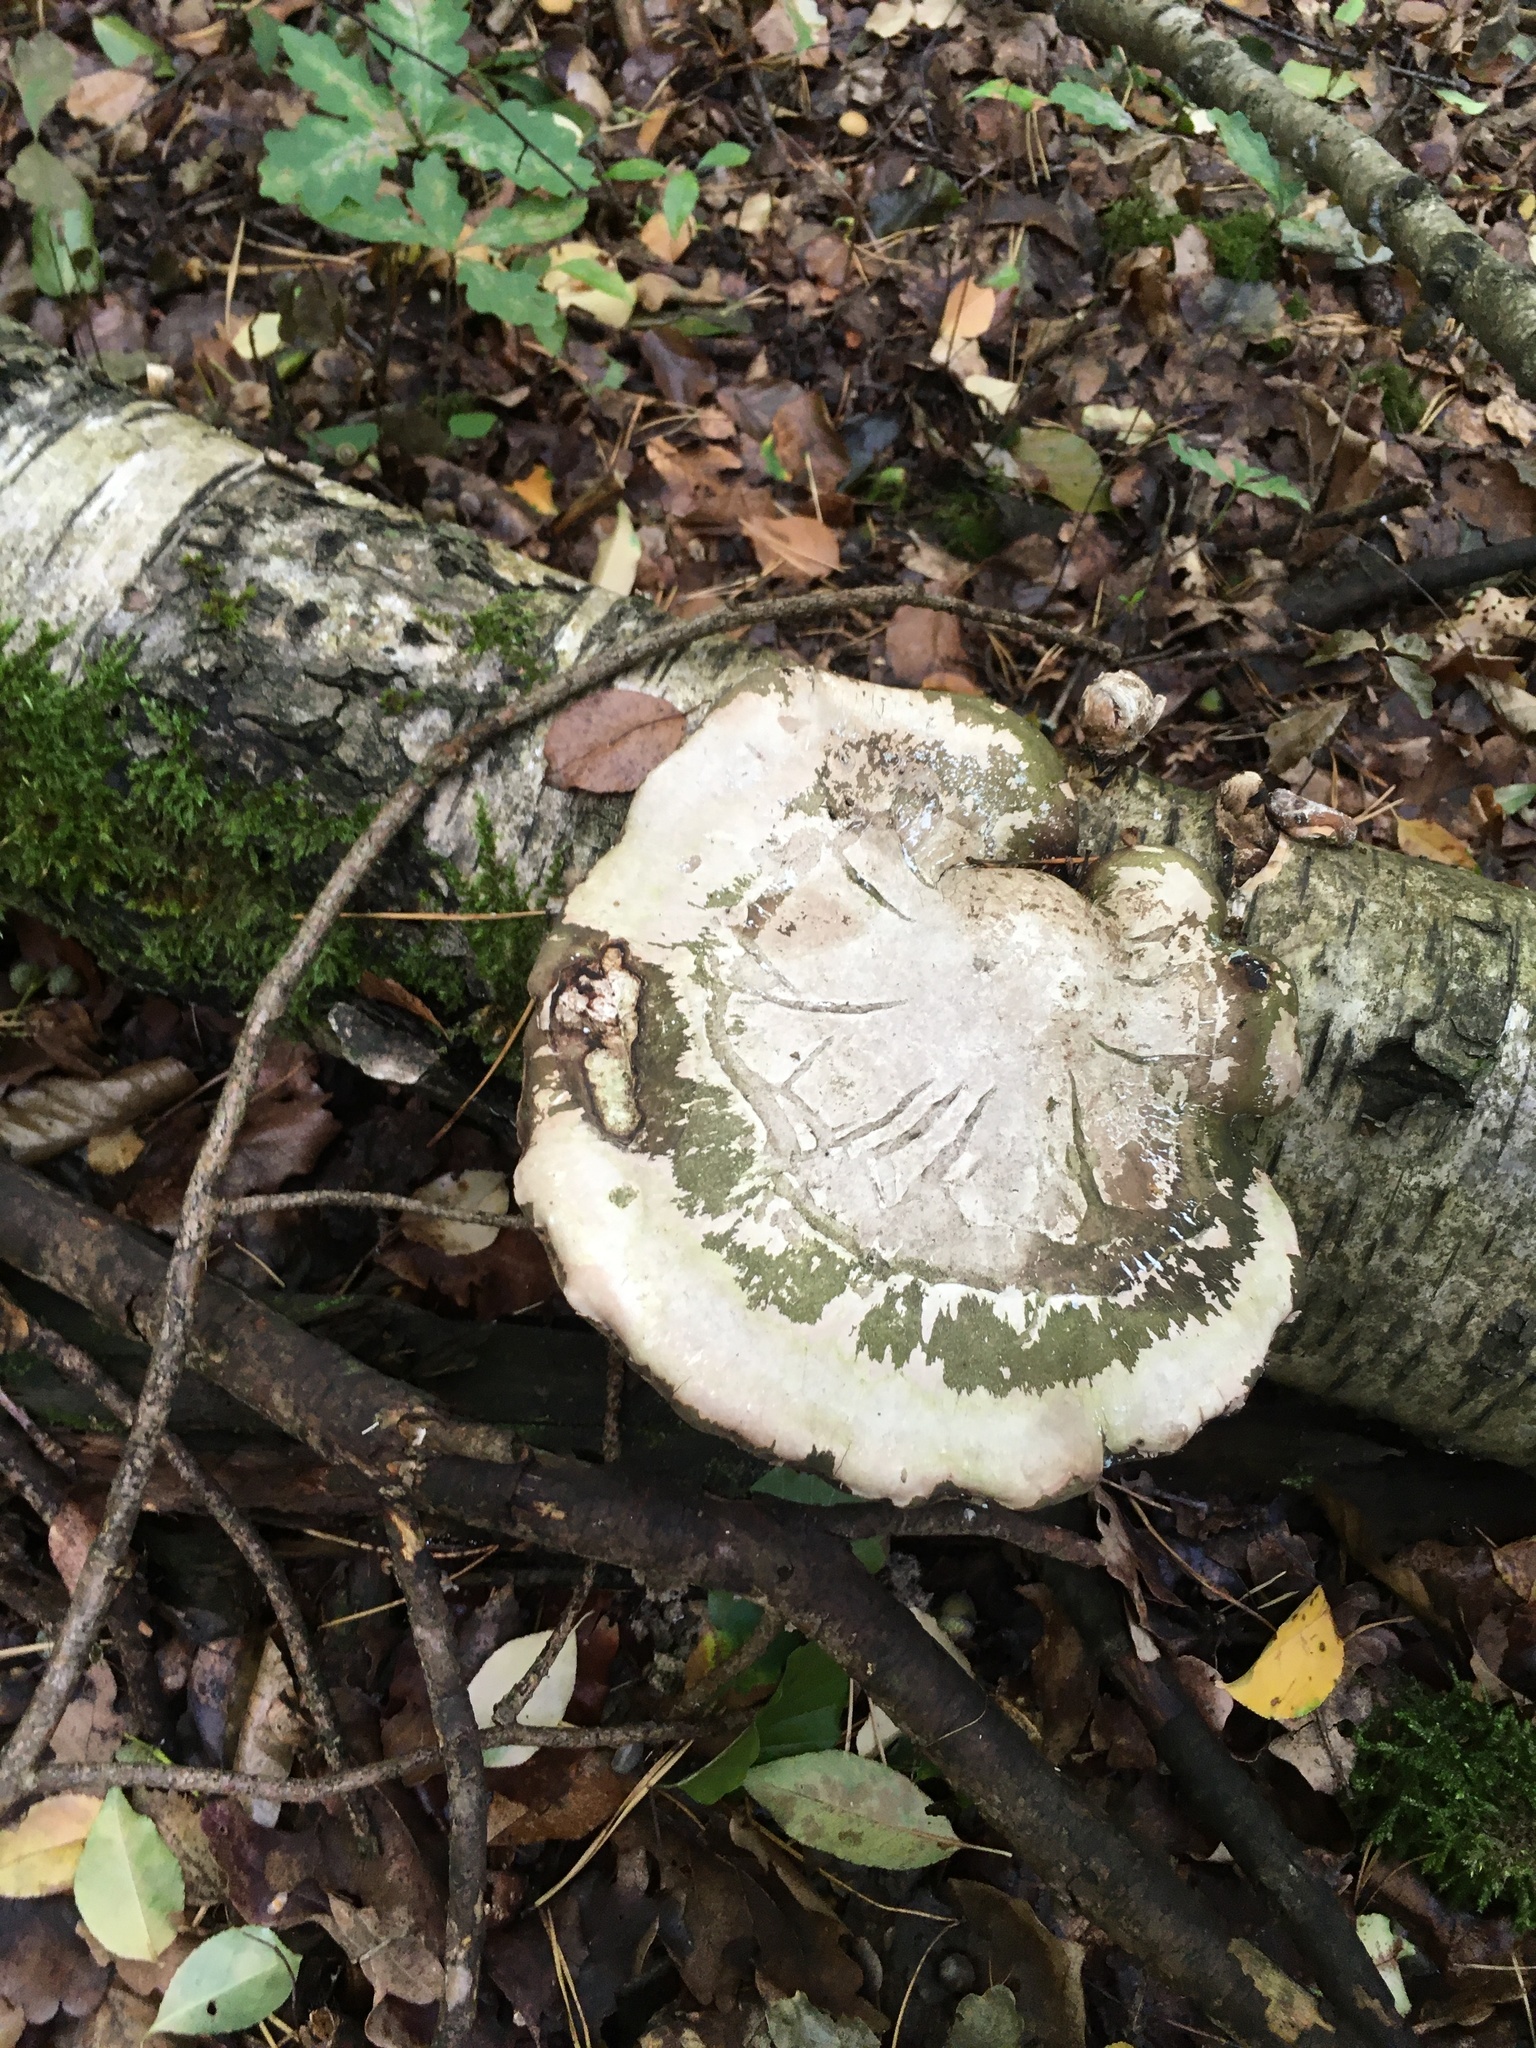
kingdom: Fungi
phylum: Basidiomycota
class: Agaricomycetes
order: Polyporales
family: Fomitopsidaceae
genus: Fomitopsis
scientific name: Fomitopsis betulina
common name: Birch polypore
